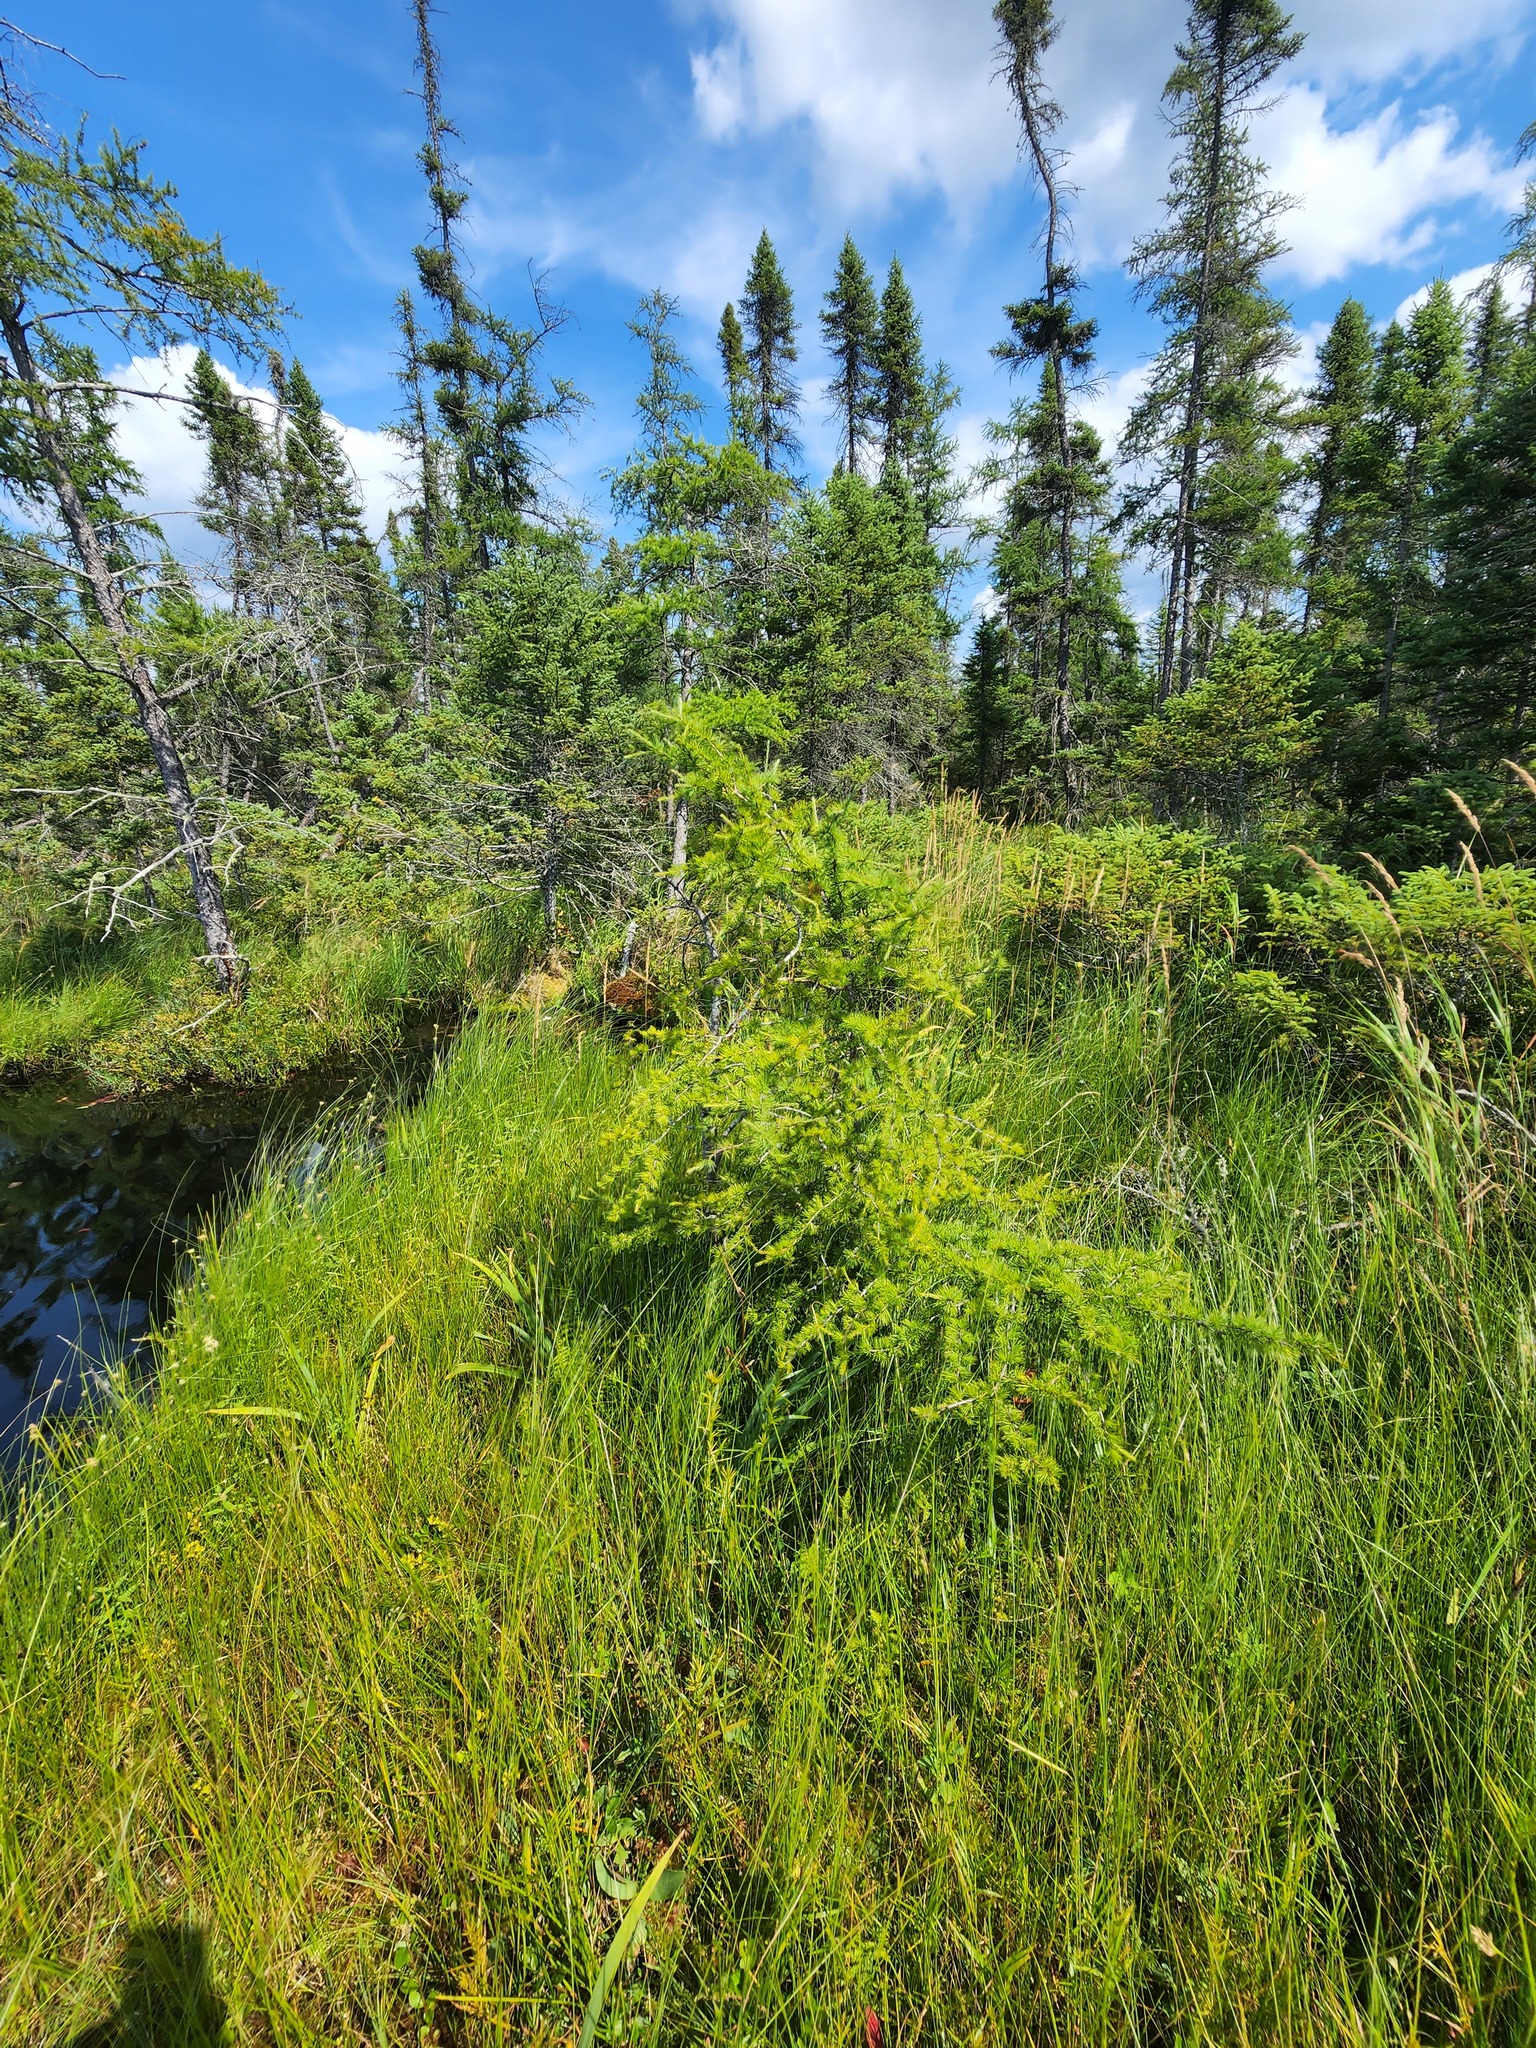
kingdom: Plantae
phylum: Tracheophyta
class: Pinopsida
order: Pinales
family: Pinaceae
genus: Larix
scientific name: Larix laricina
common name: American larch
